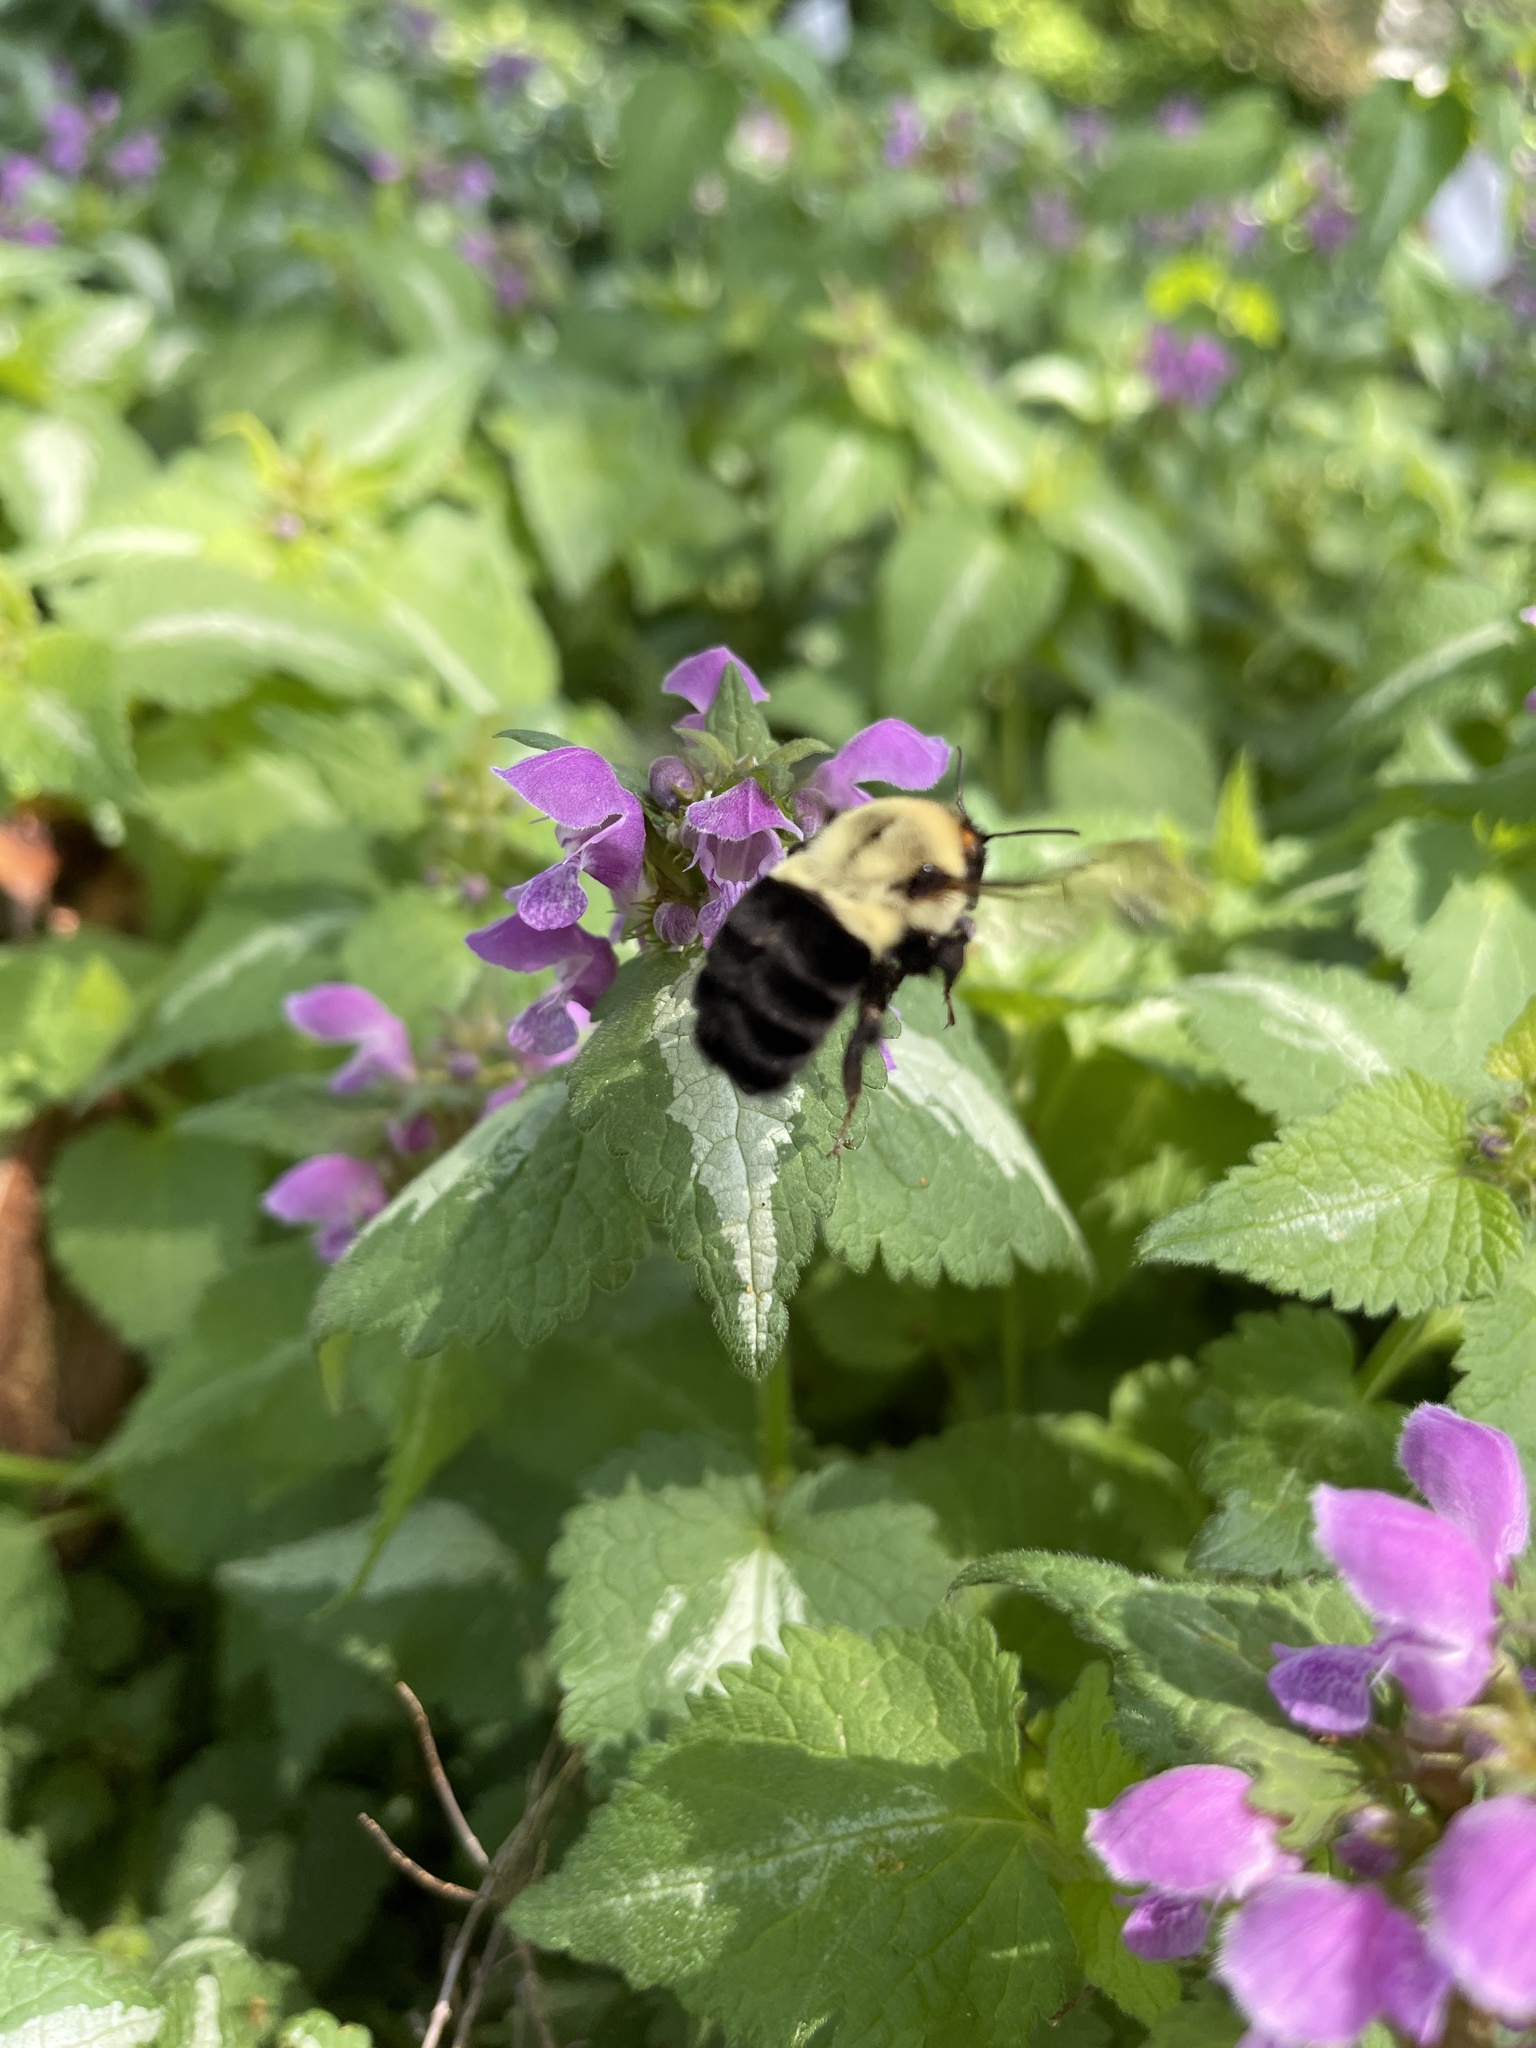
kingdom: Animalia
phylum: Arthropoda
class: Insecta
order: Hymenoptera
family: Apidae
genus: Bombus
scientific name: Bombus impatiens
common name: Common eastern bumble bee
